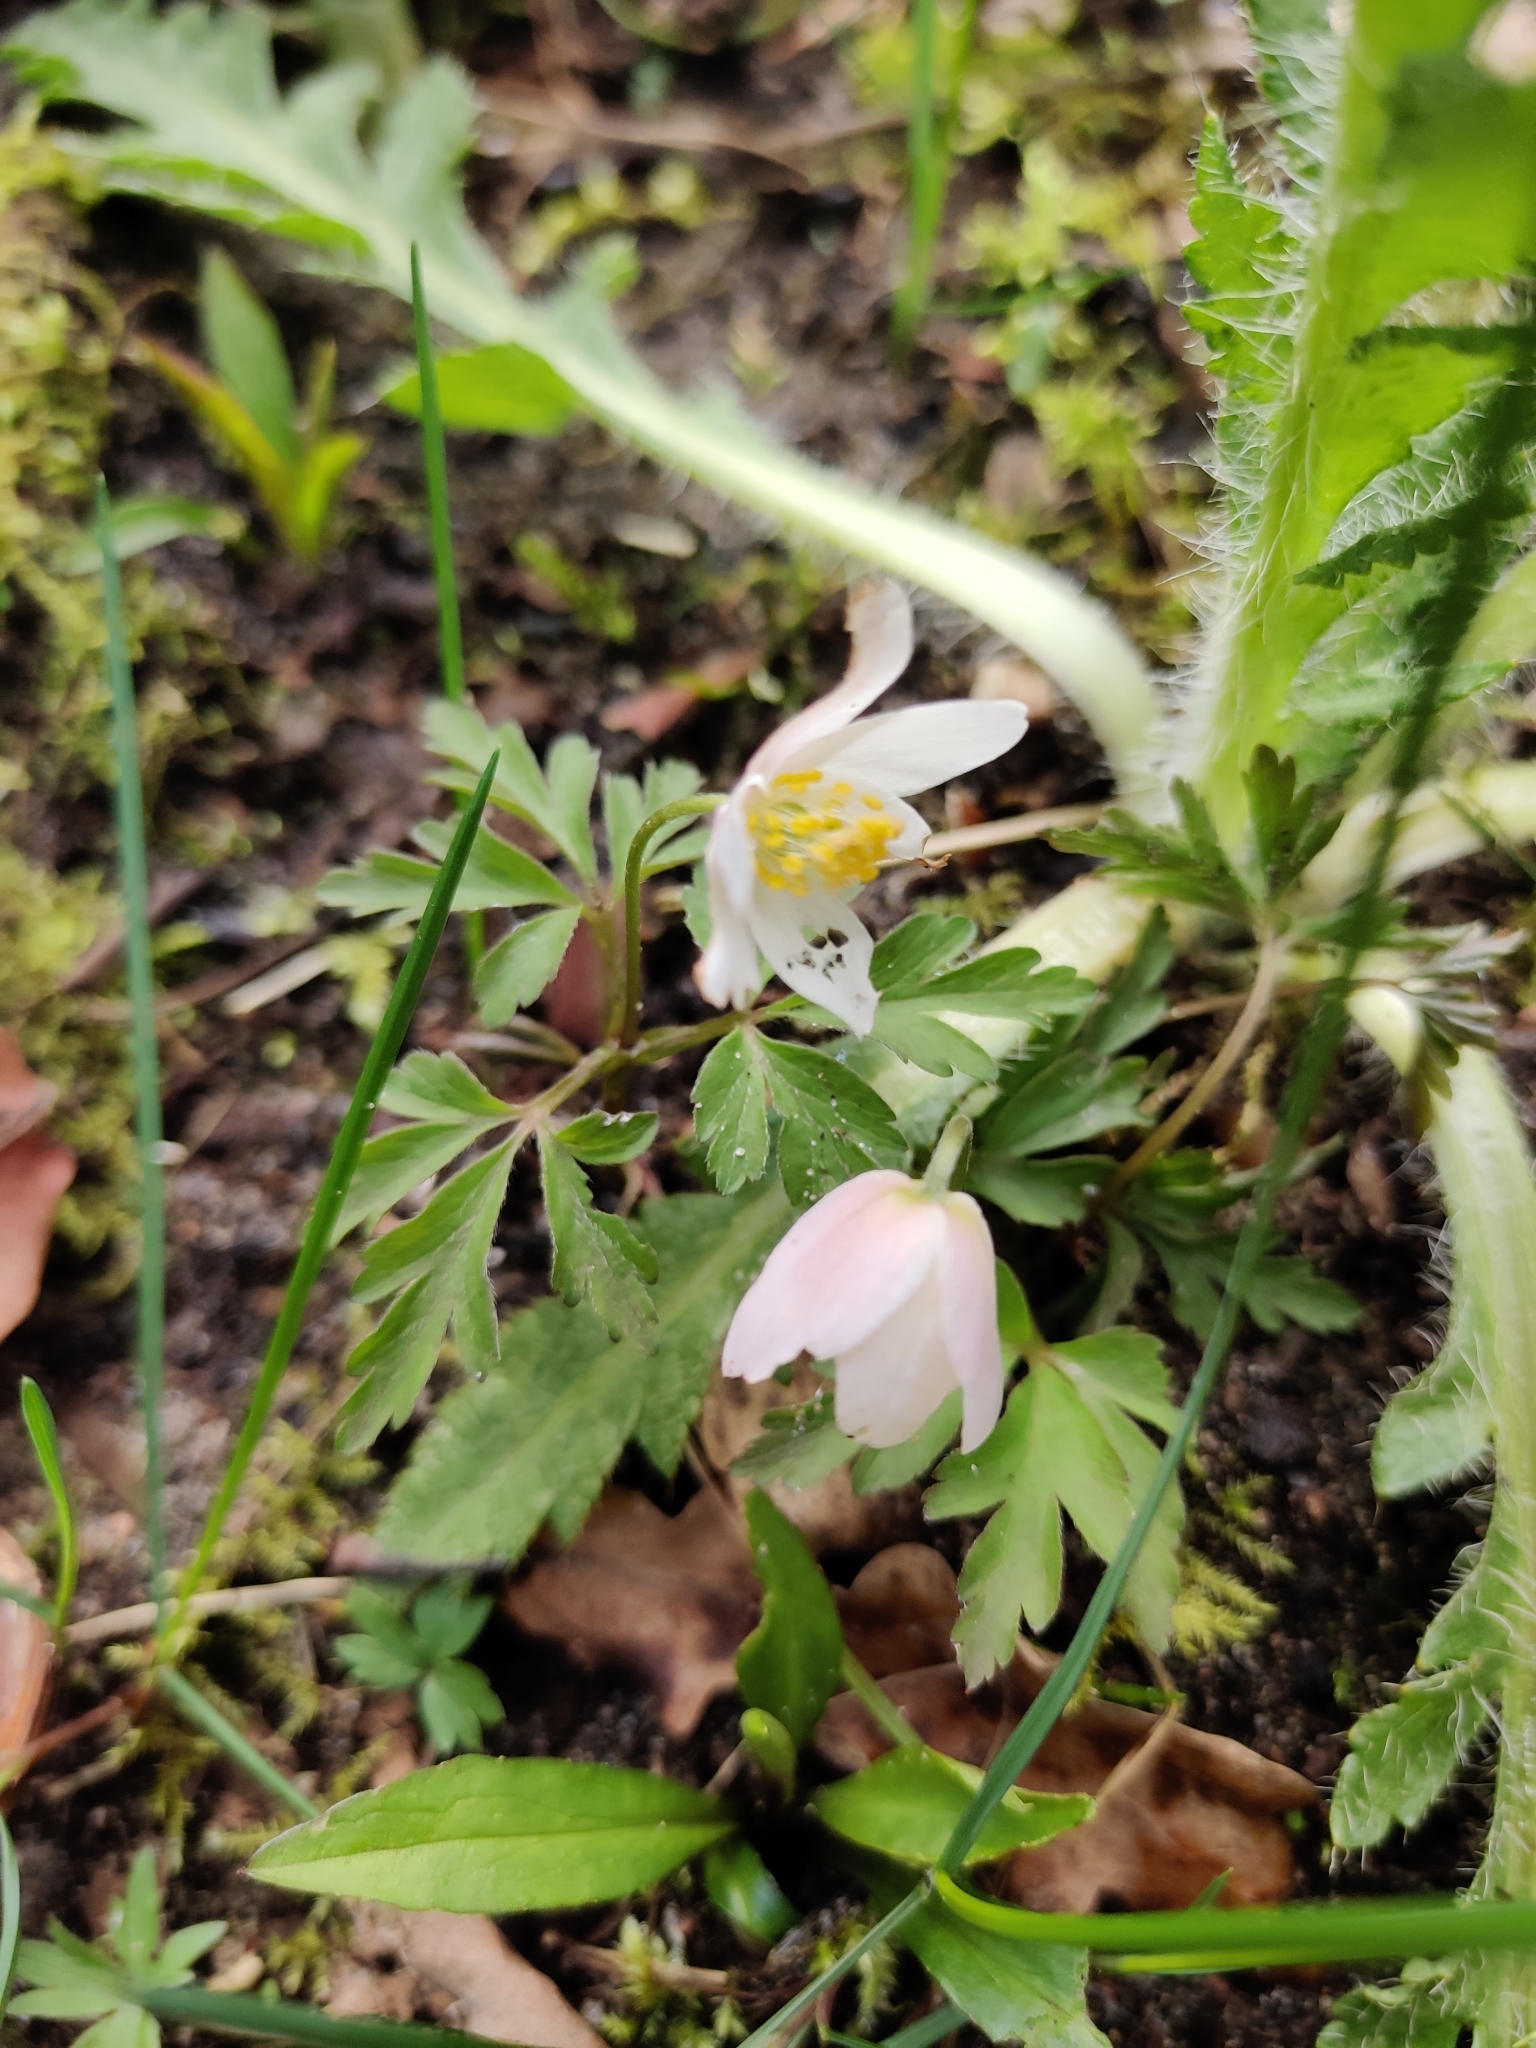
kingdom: Plantae
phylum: Tracheophyta
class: Magnoliopsida
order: Ranunculales
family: Ranunculaceae
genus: Anemone
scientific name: Anemone nemorosa
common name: Wood anemone
